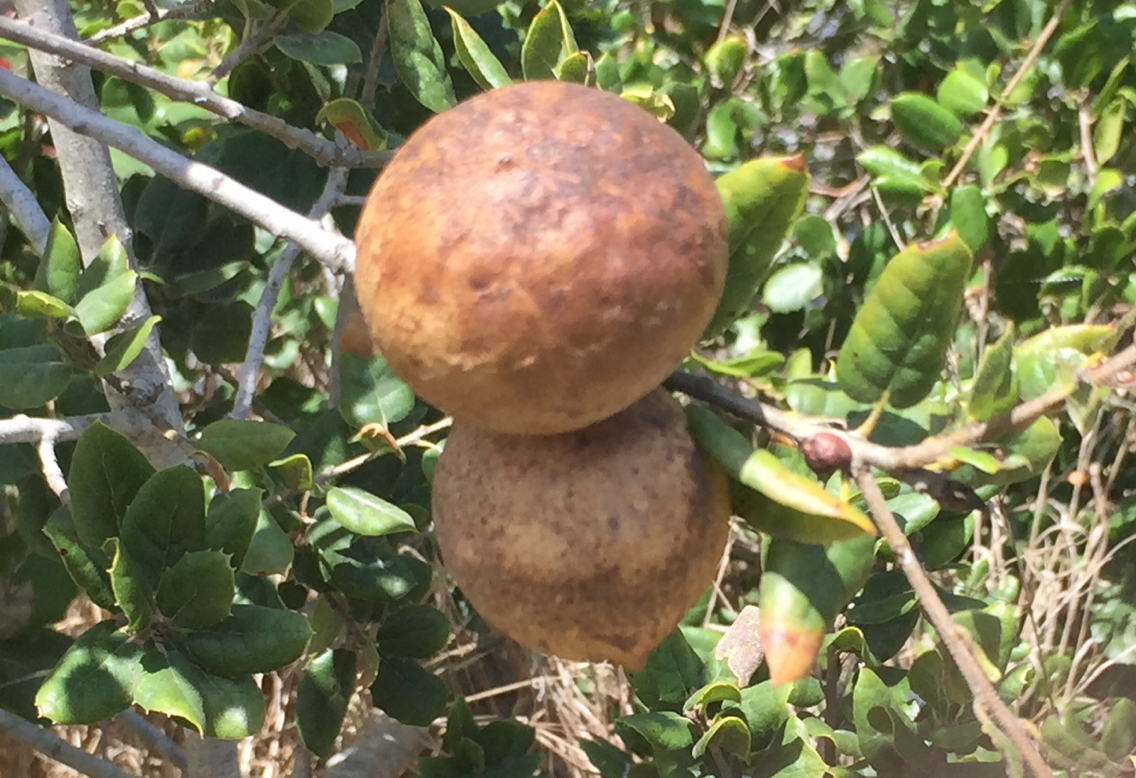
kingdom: Animalia
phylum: Arthropoda
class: Insecta
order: Hymenoptera
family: Cynipidae
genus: Andricus
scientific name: Andricus quercuscalifornicus
